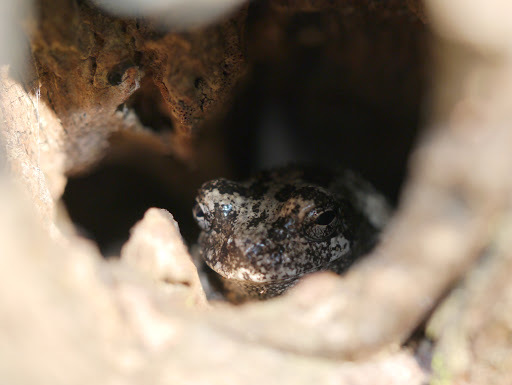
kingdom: Animalia
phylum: Chordata
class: Amphibia
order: Anura
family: Hylidae
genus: Hyla
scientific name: Hyla
